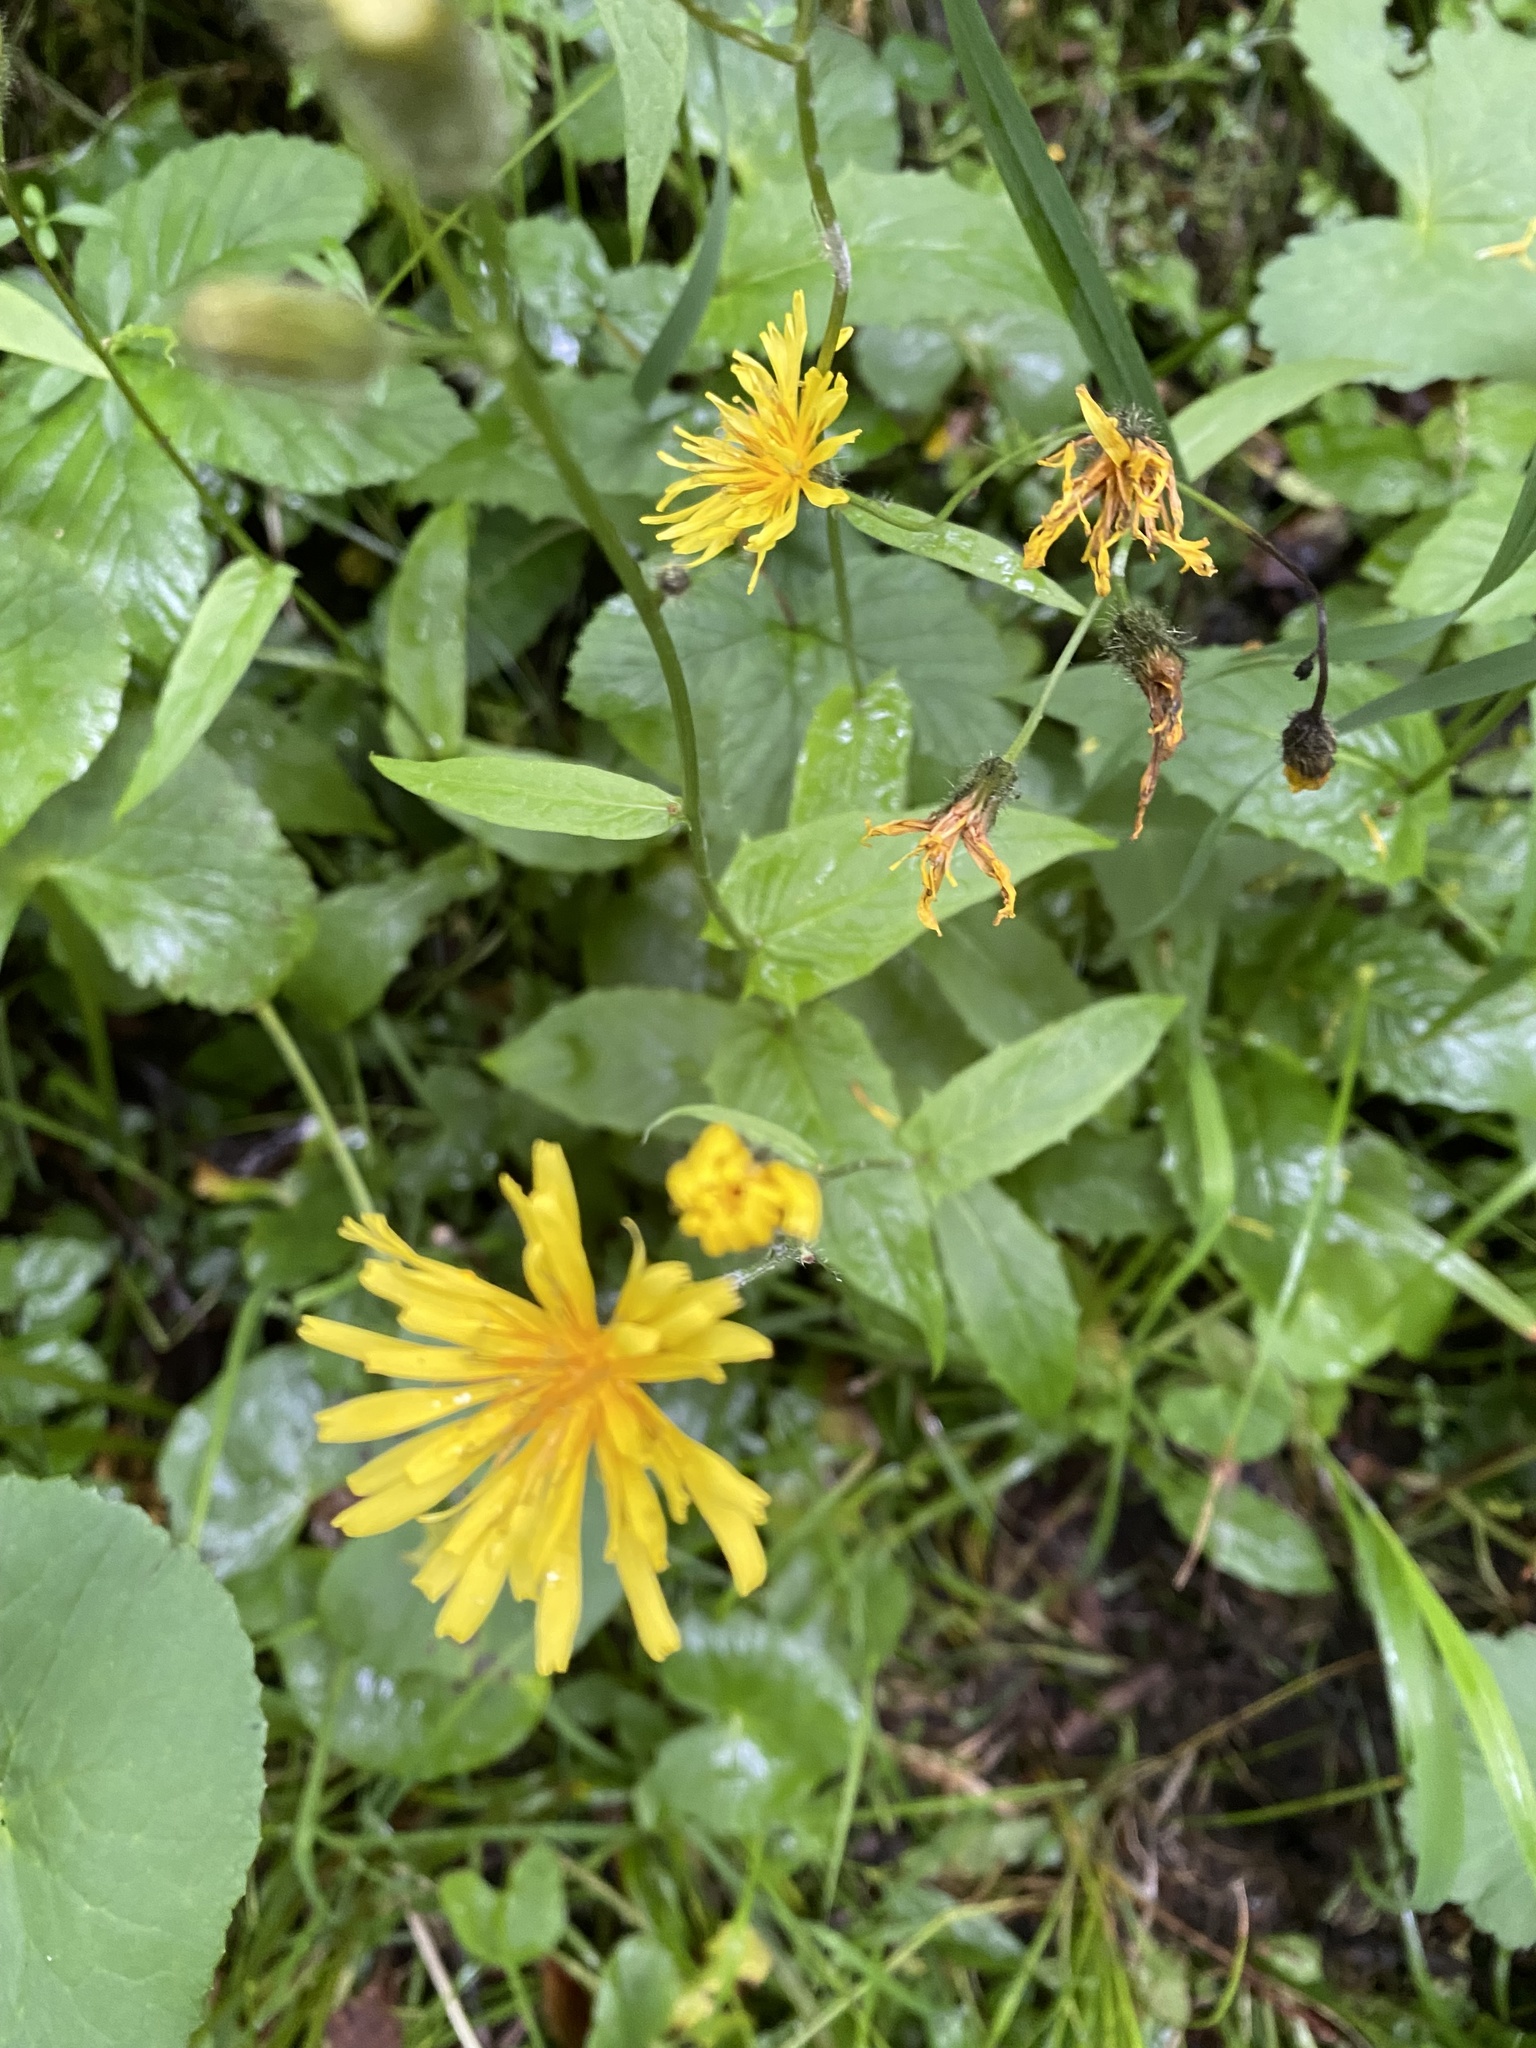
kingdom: Plantae
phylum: Tracheophyta
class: Magnoliopsida
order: Asterales
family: Asteraceae
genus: Crepis
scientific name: Crepis paludosa
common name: Marsh hawk's-beard
